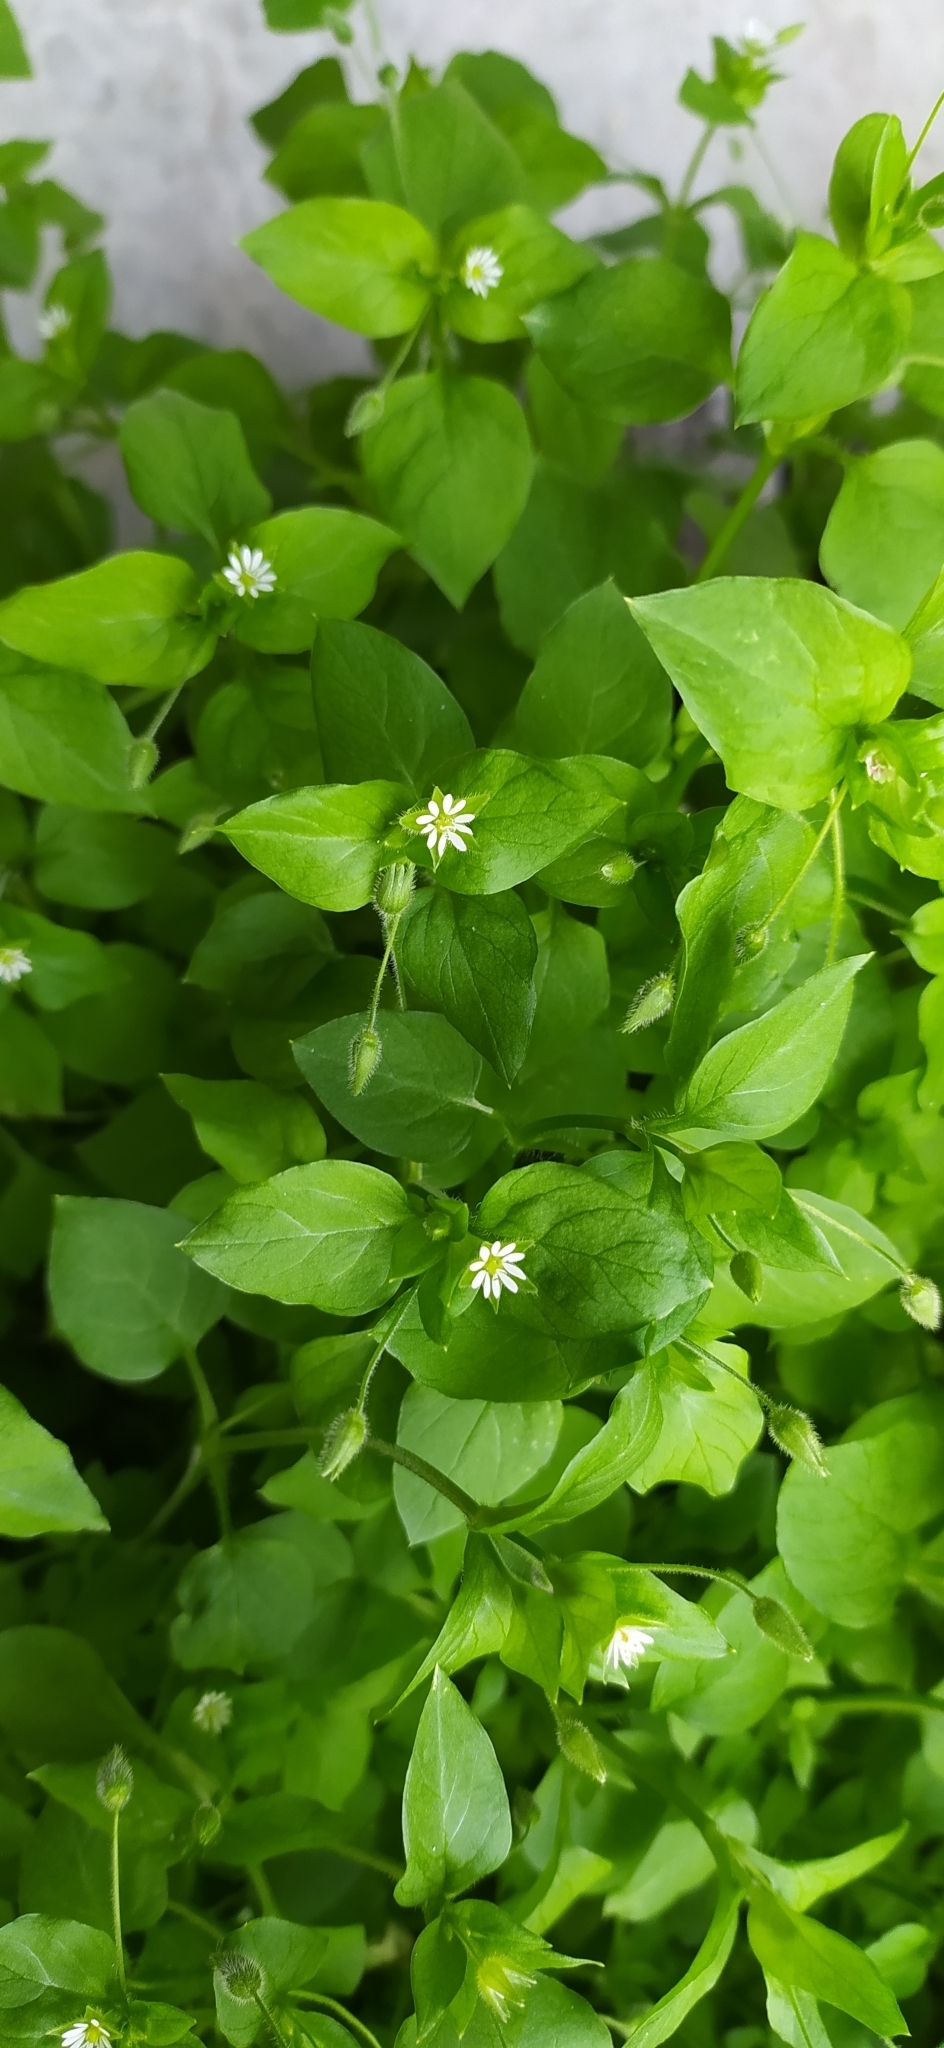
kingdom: Plantae
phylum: Tracheophyta
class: Magnoliopsida
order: Caryophyllales
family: Caryophyllaceae
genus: Stellaria
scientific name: Stellaria media
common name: Common chickweed
